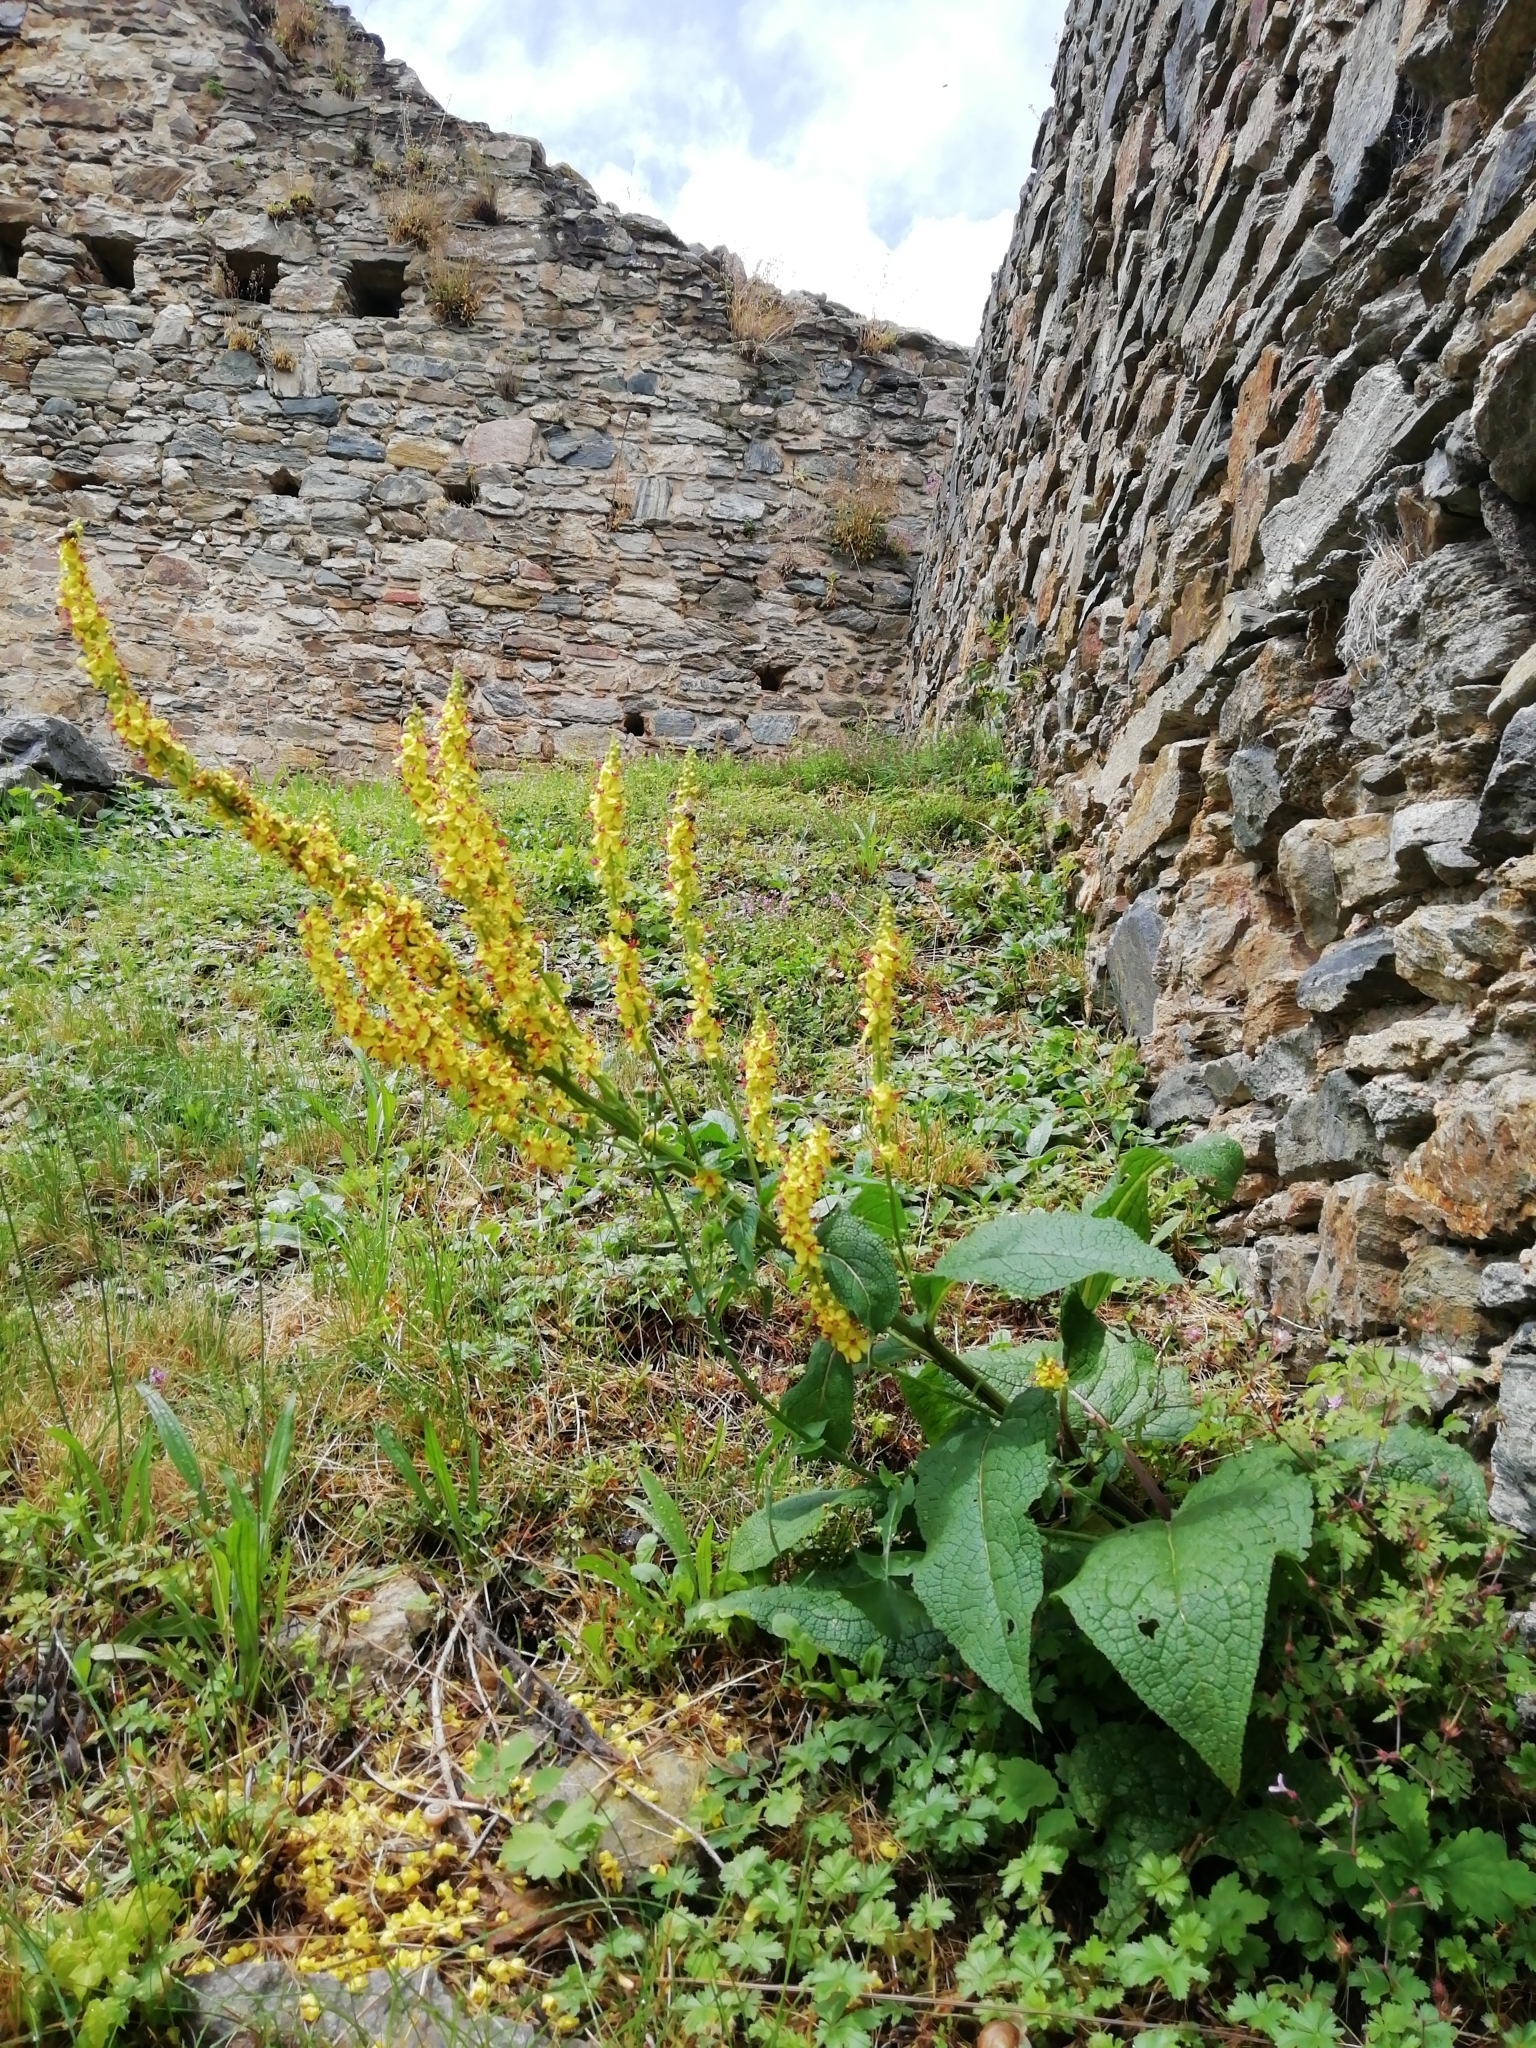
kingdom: Plantae
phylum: Tracheophyta
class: Magnoliopsida
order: Lamiales
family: Scrophulariaceae
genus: Verbascum
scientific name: Verbascum nigrum
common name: Dark mullein
